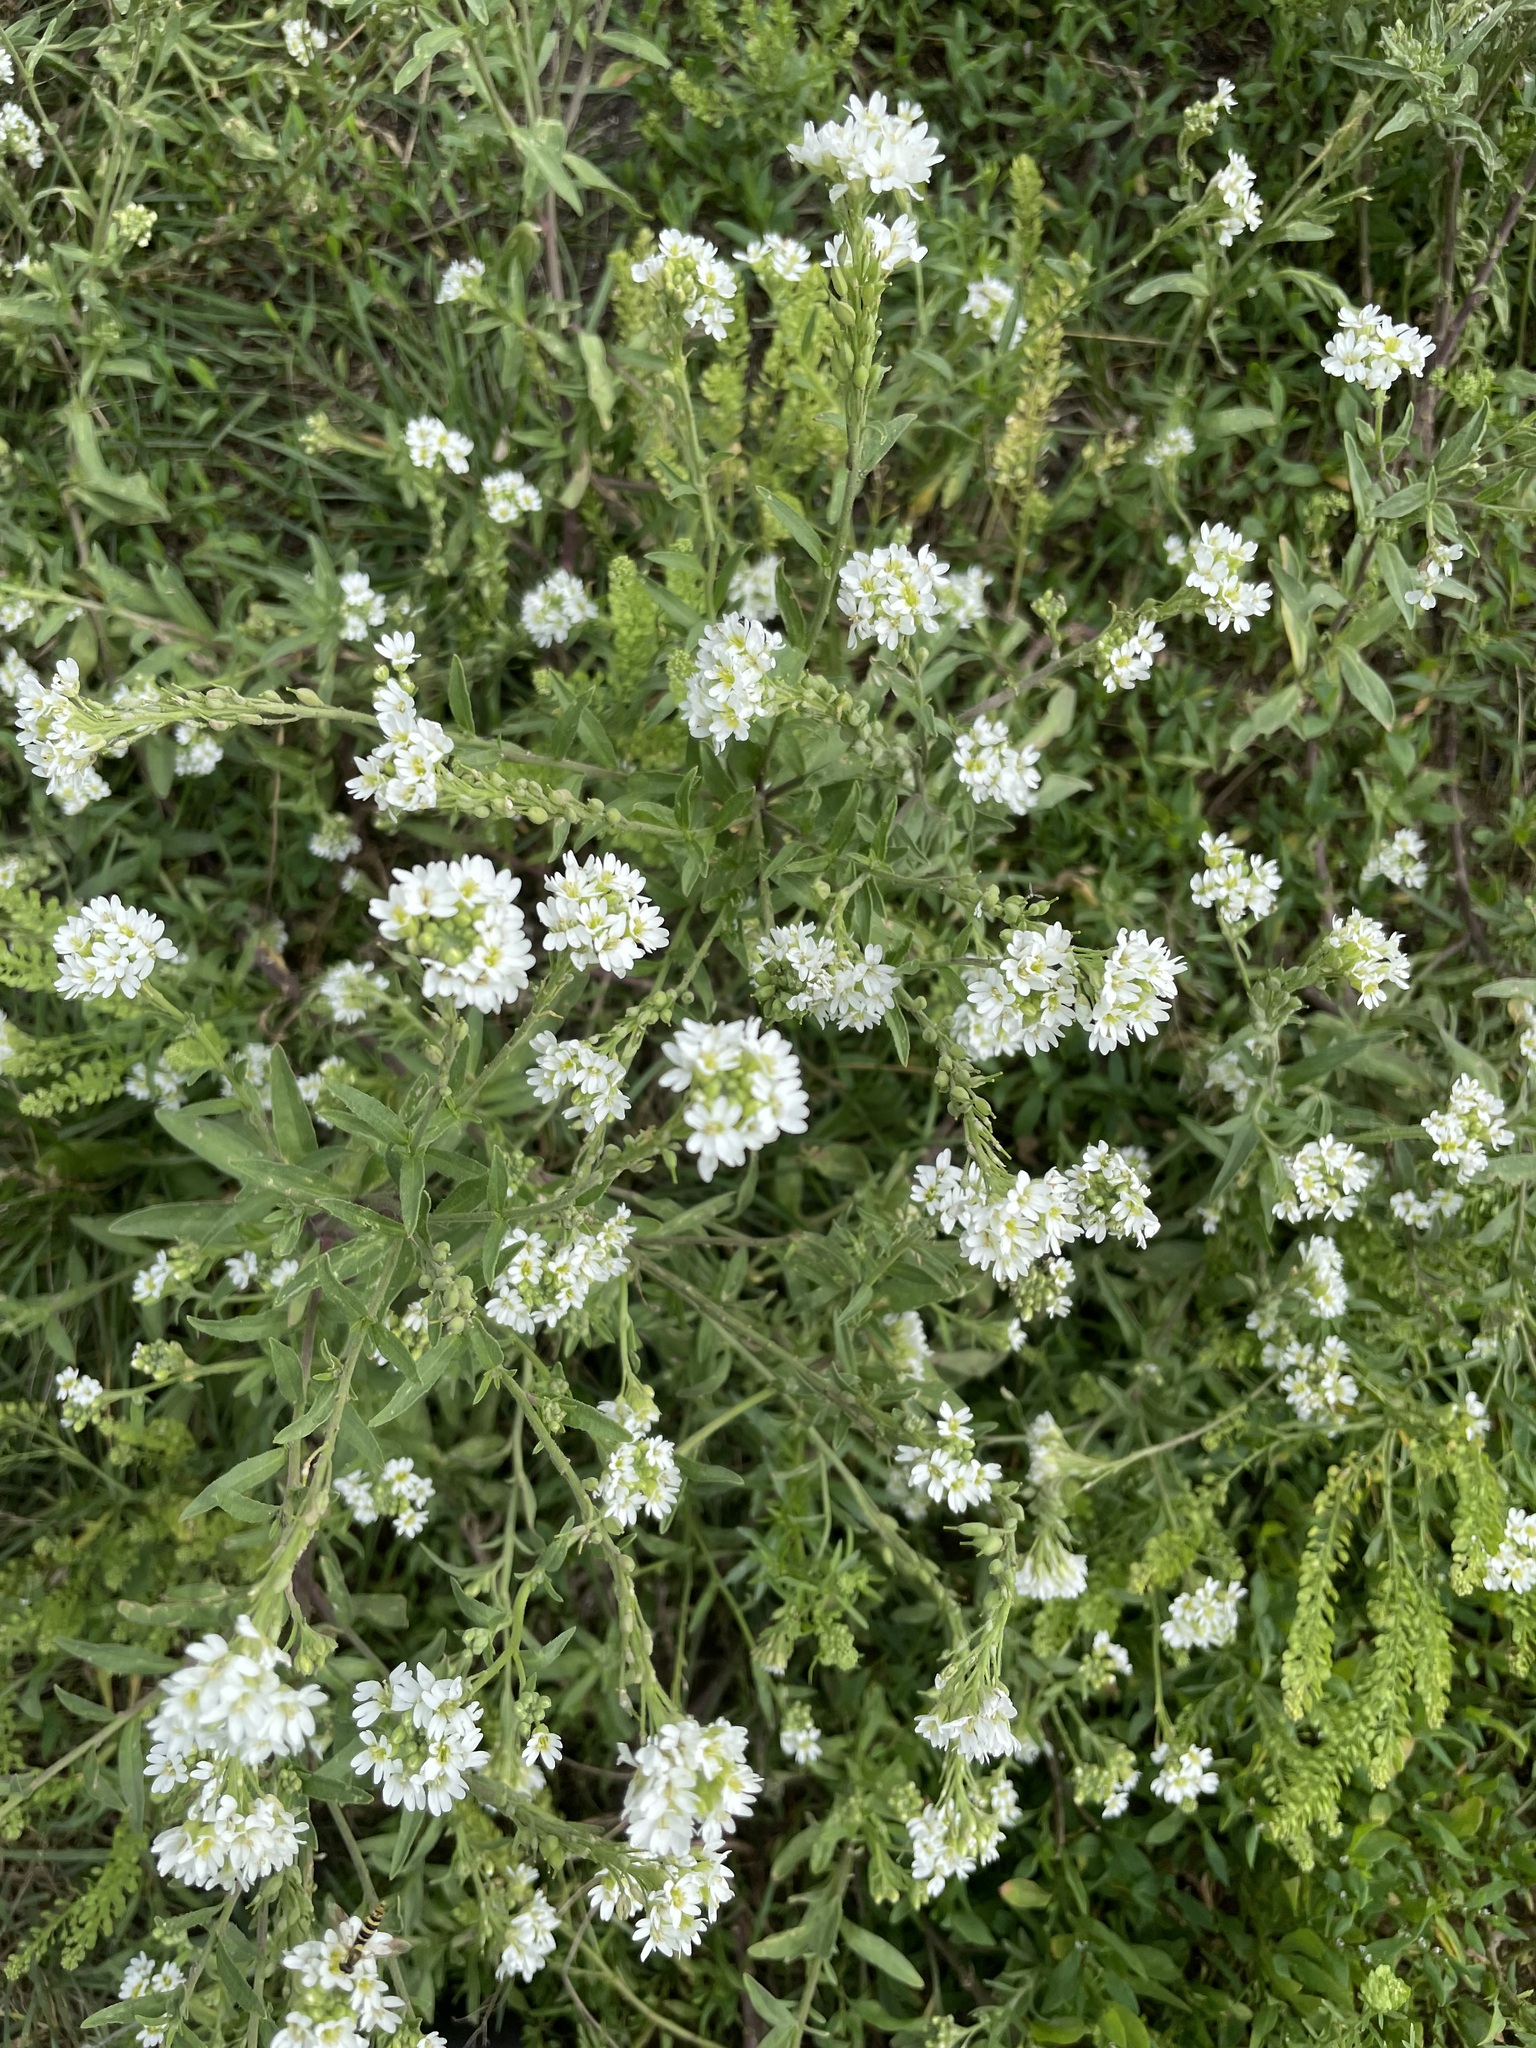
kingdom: Plantae
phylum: Tracheophyta
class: Magnoliopsida
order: Brassicales
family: Brassicaceae
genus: Berteroa
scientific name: Berteroa incana
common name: Hoary alison
